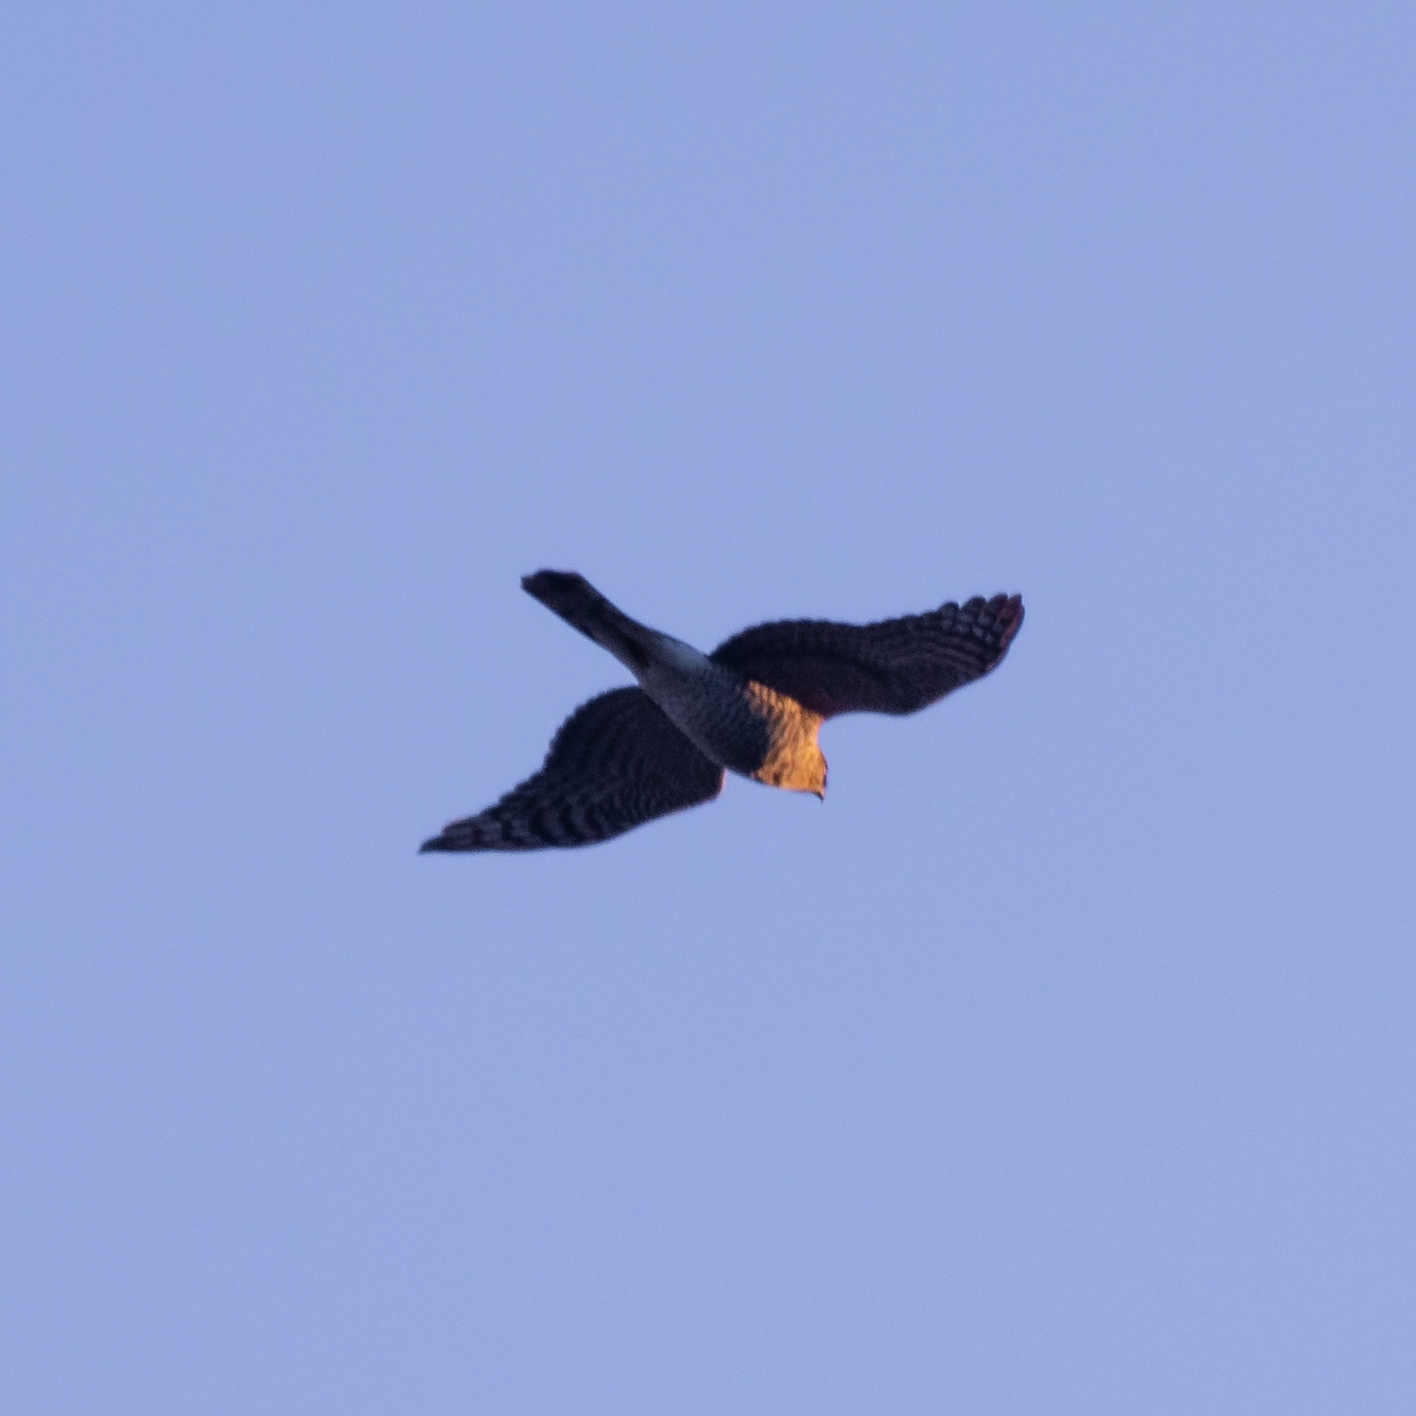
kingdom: Animalia
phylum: Chordata
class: Aves
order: Accipitriformes
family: Accipitridae
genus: Accipiter
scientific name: Accipiter nisus
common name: Eurasian sparrowhawk
